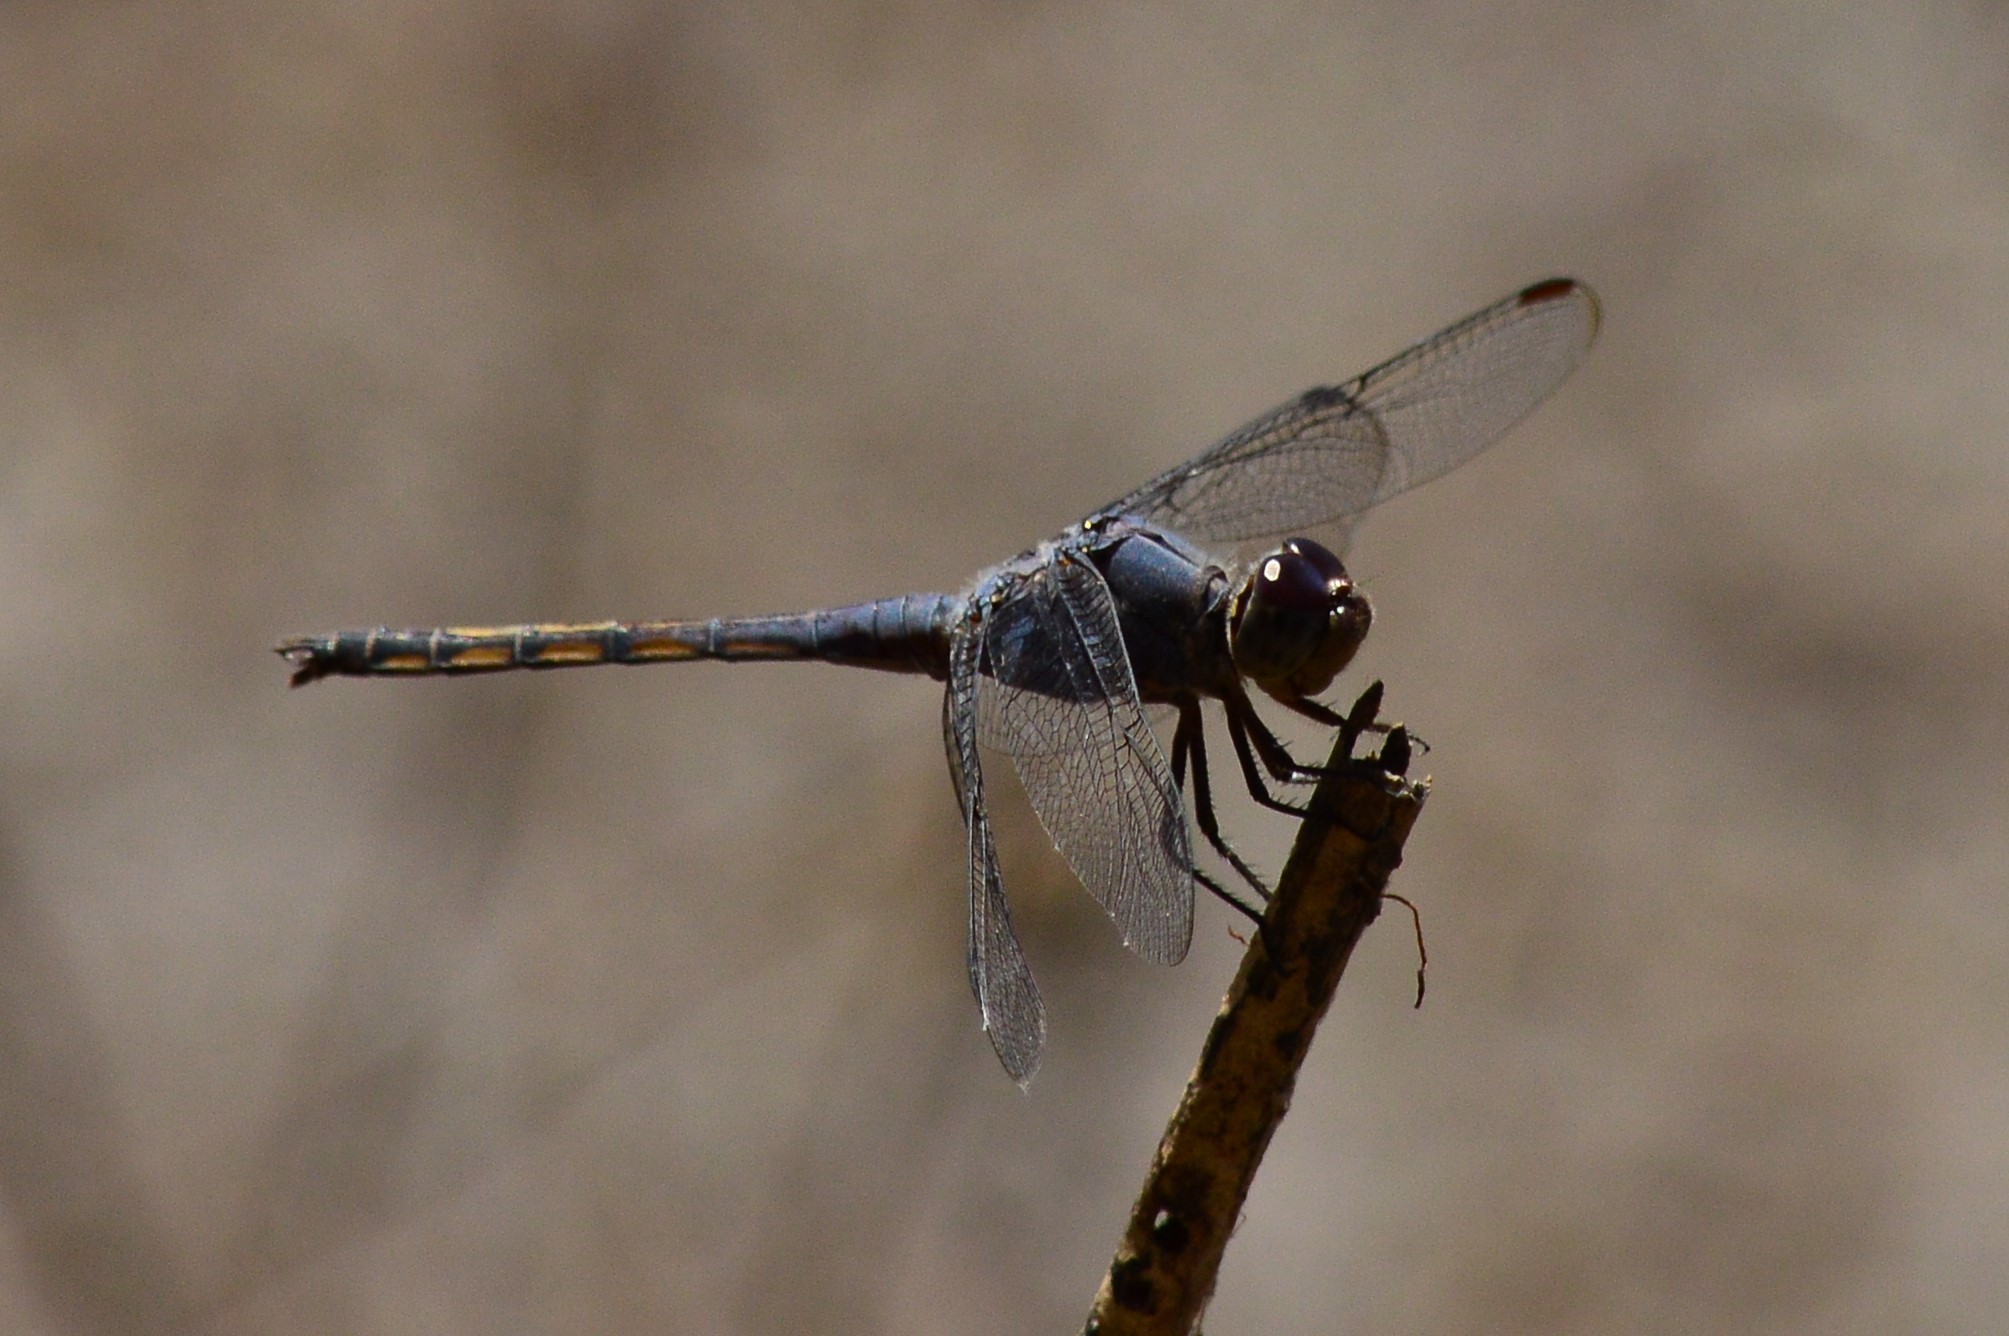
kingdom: Animalia
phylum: Arthropoda
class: Insecta
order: Odonata
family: Libellulidae
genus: Potamarcha
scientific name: Potamarcha congener
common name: Blue chaser
